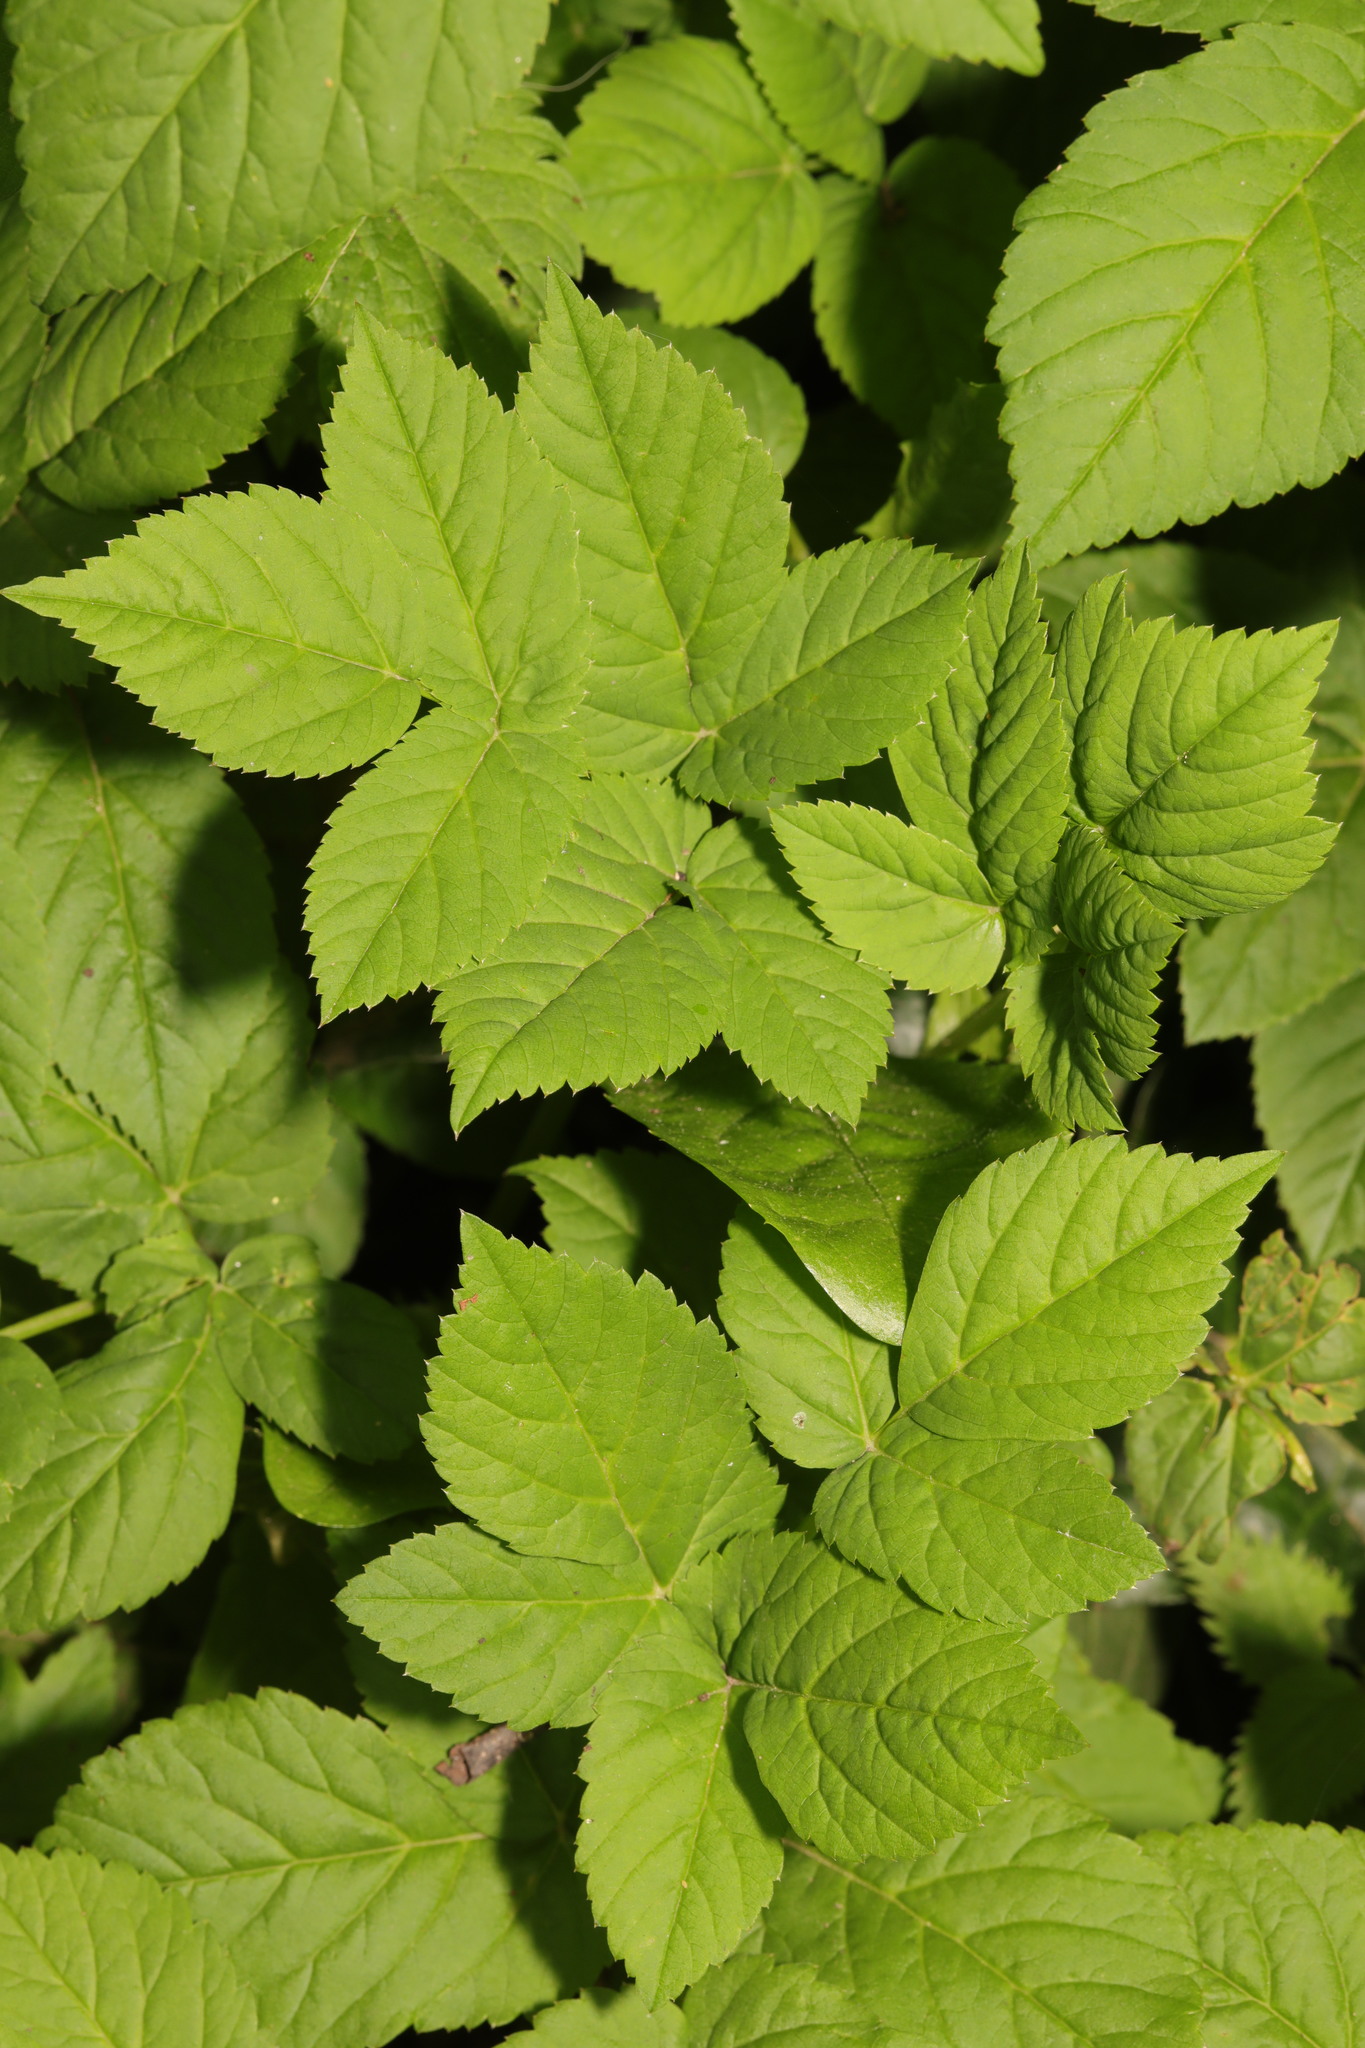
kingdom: Plantae
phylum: Tracheophyta
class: Magnoliopsida
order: Apiales
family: Apiaceae
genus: Aegopodium
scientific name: Aegopodium podagraria
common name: Ground-elder
